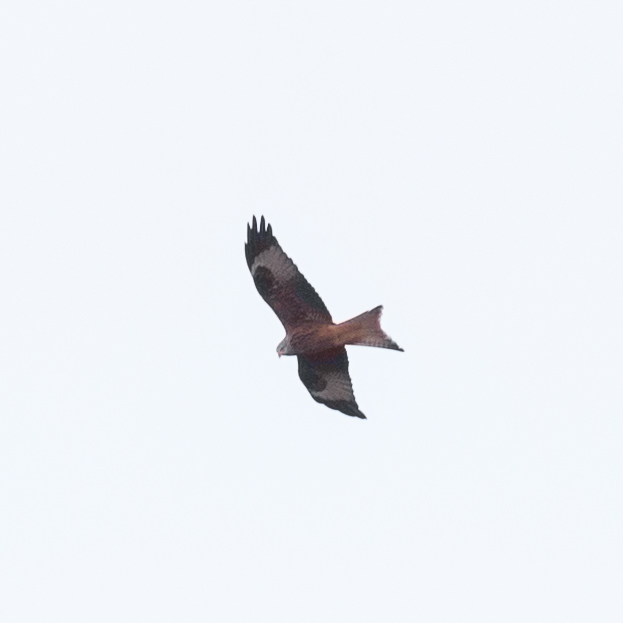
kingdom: Animalia
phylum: Chordata
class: Aves
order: Accipitriformes
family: Accipitridae
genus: Milvus
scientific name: Milvus milvus
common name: Red kite
